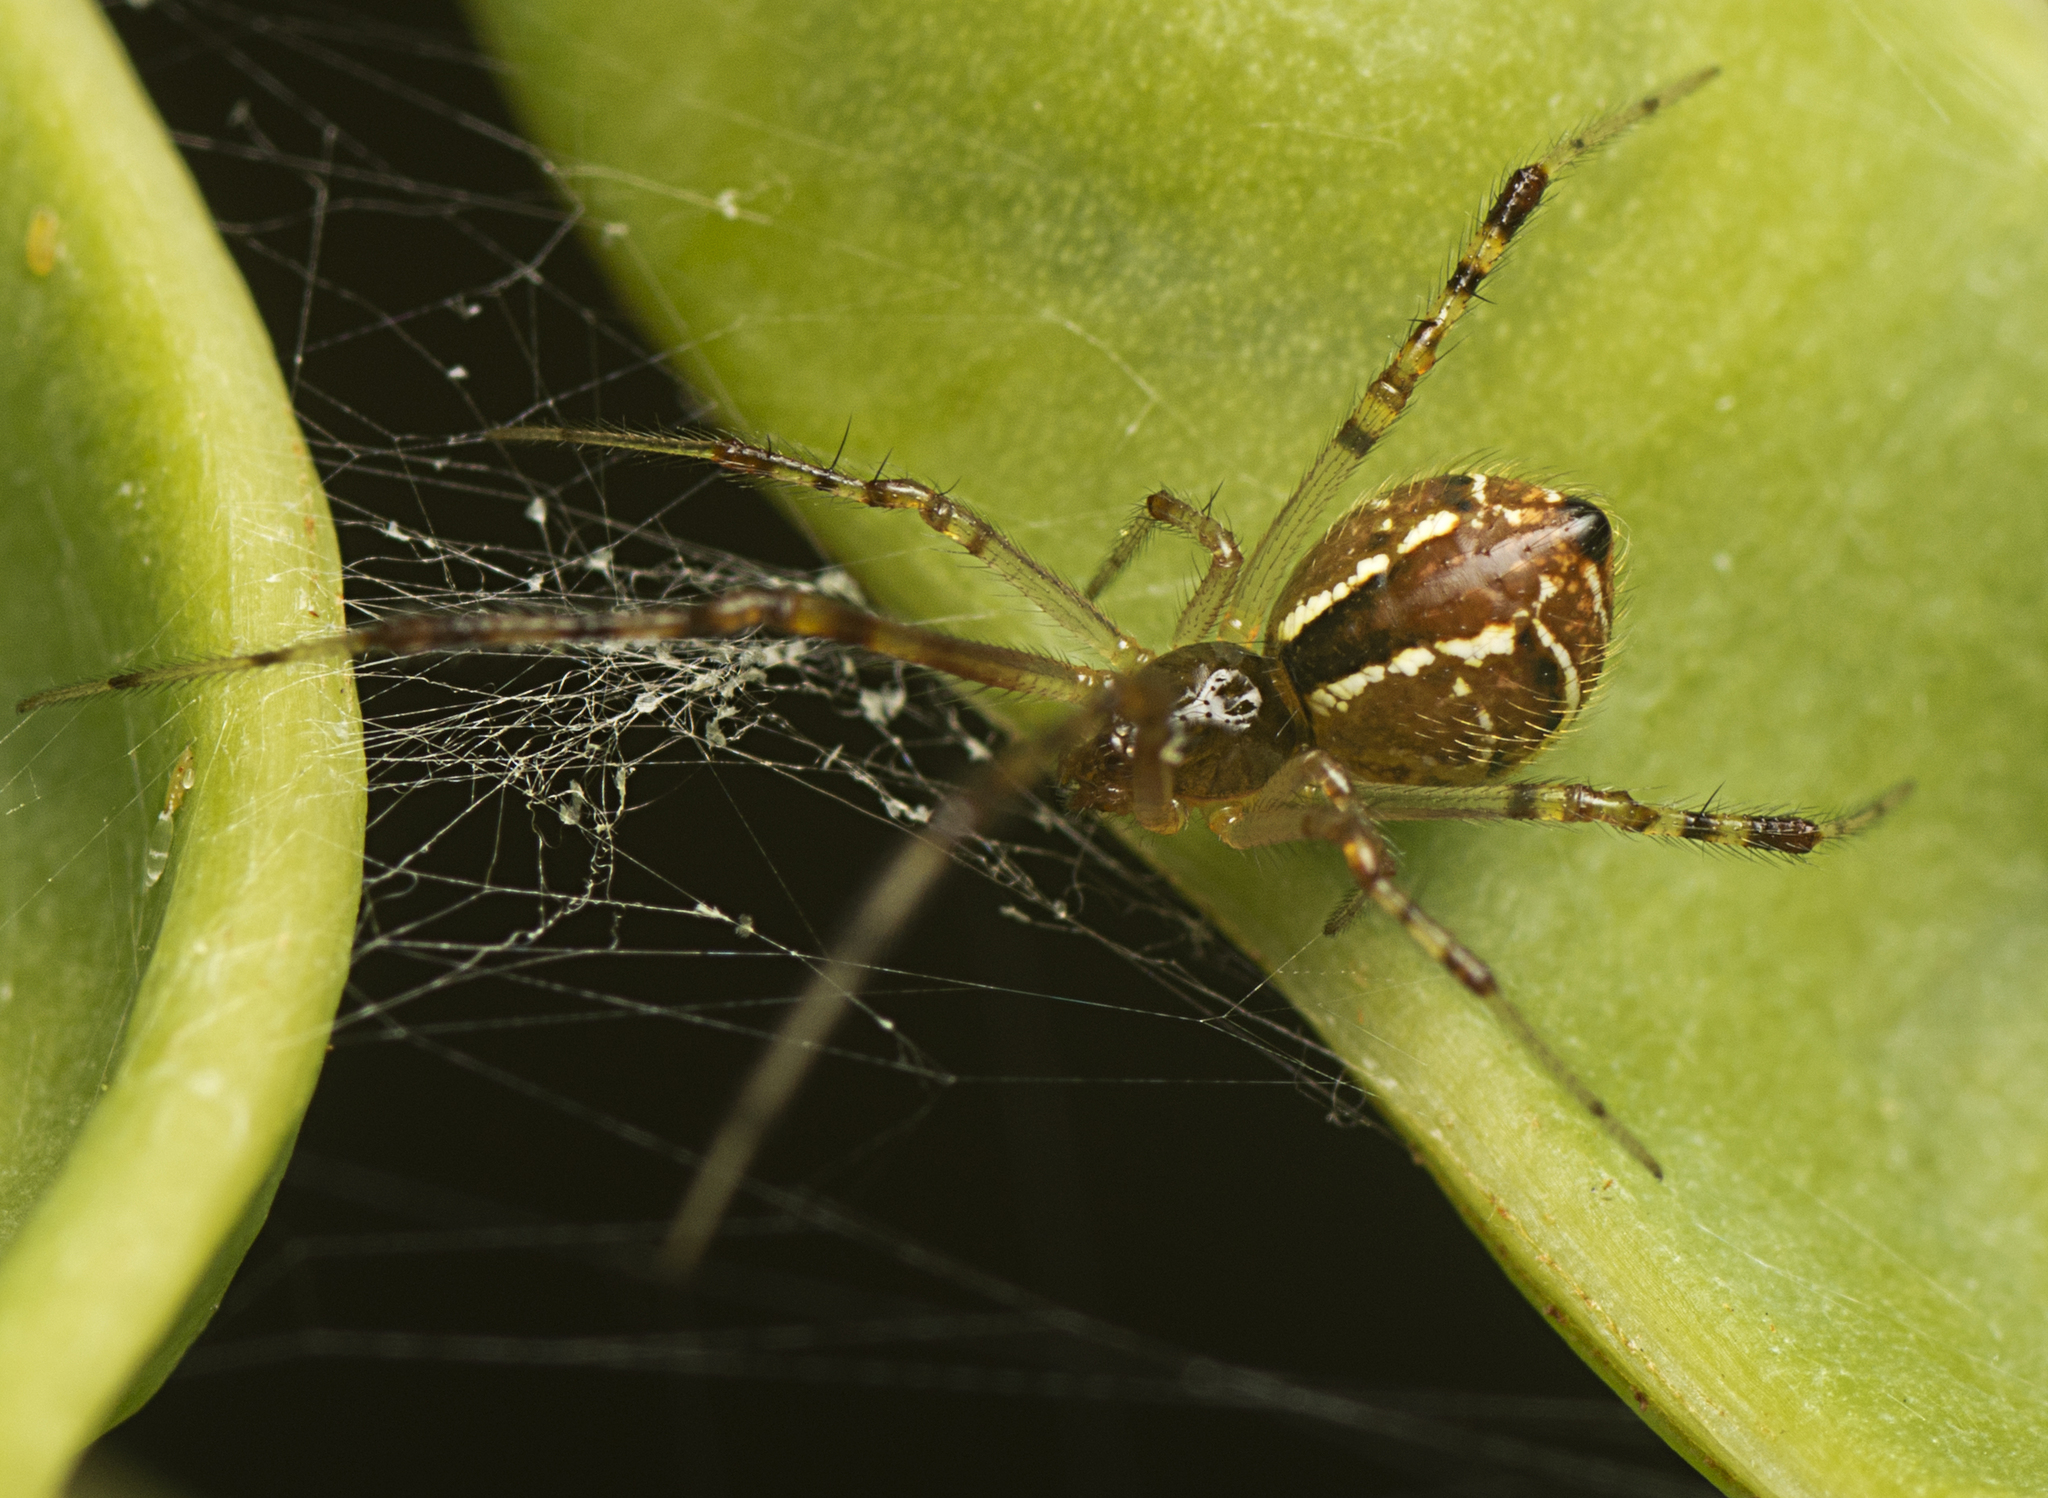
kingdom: Animalia
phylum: Arthropoda
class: Arachnida
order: Araneae
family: Theridiidae
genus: Theridion
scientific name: Theridion pyramidale
